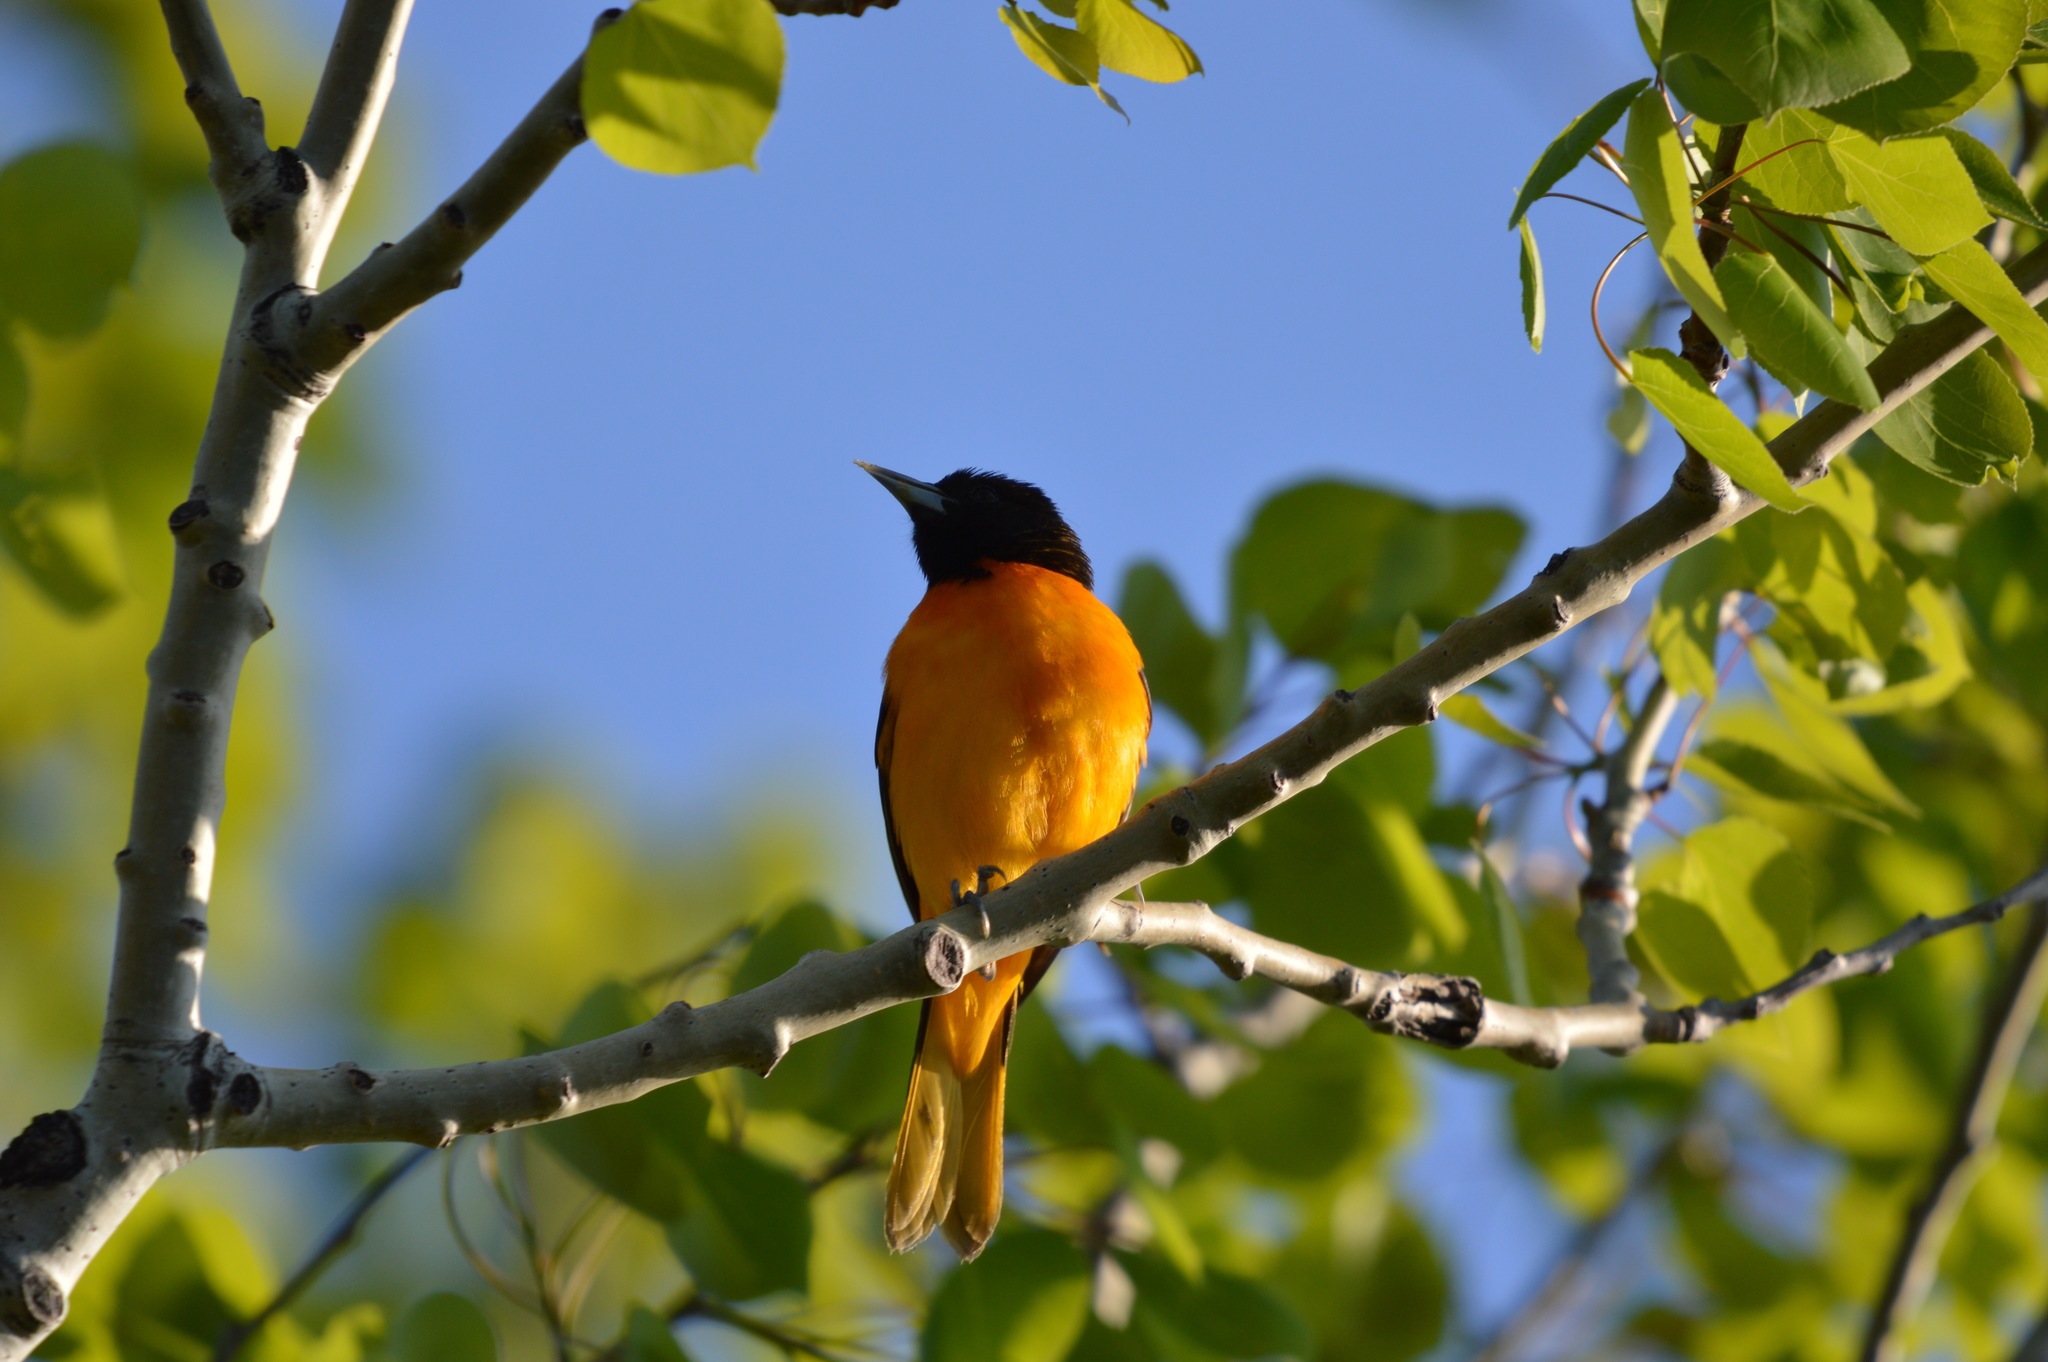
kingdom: Animalia
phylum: Chordata
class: Aves
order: Passeriformes
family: Icteridae
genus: Icterus
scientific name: Icterus galbula
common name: Baltimore oriole
